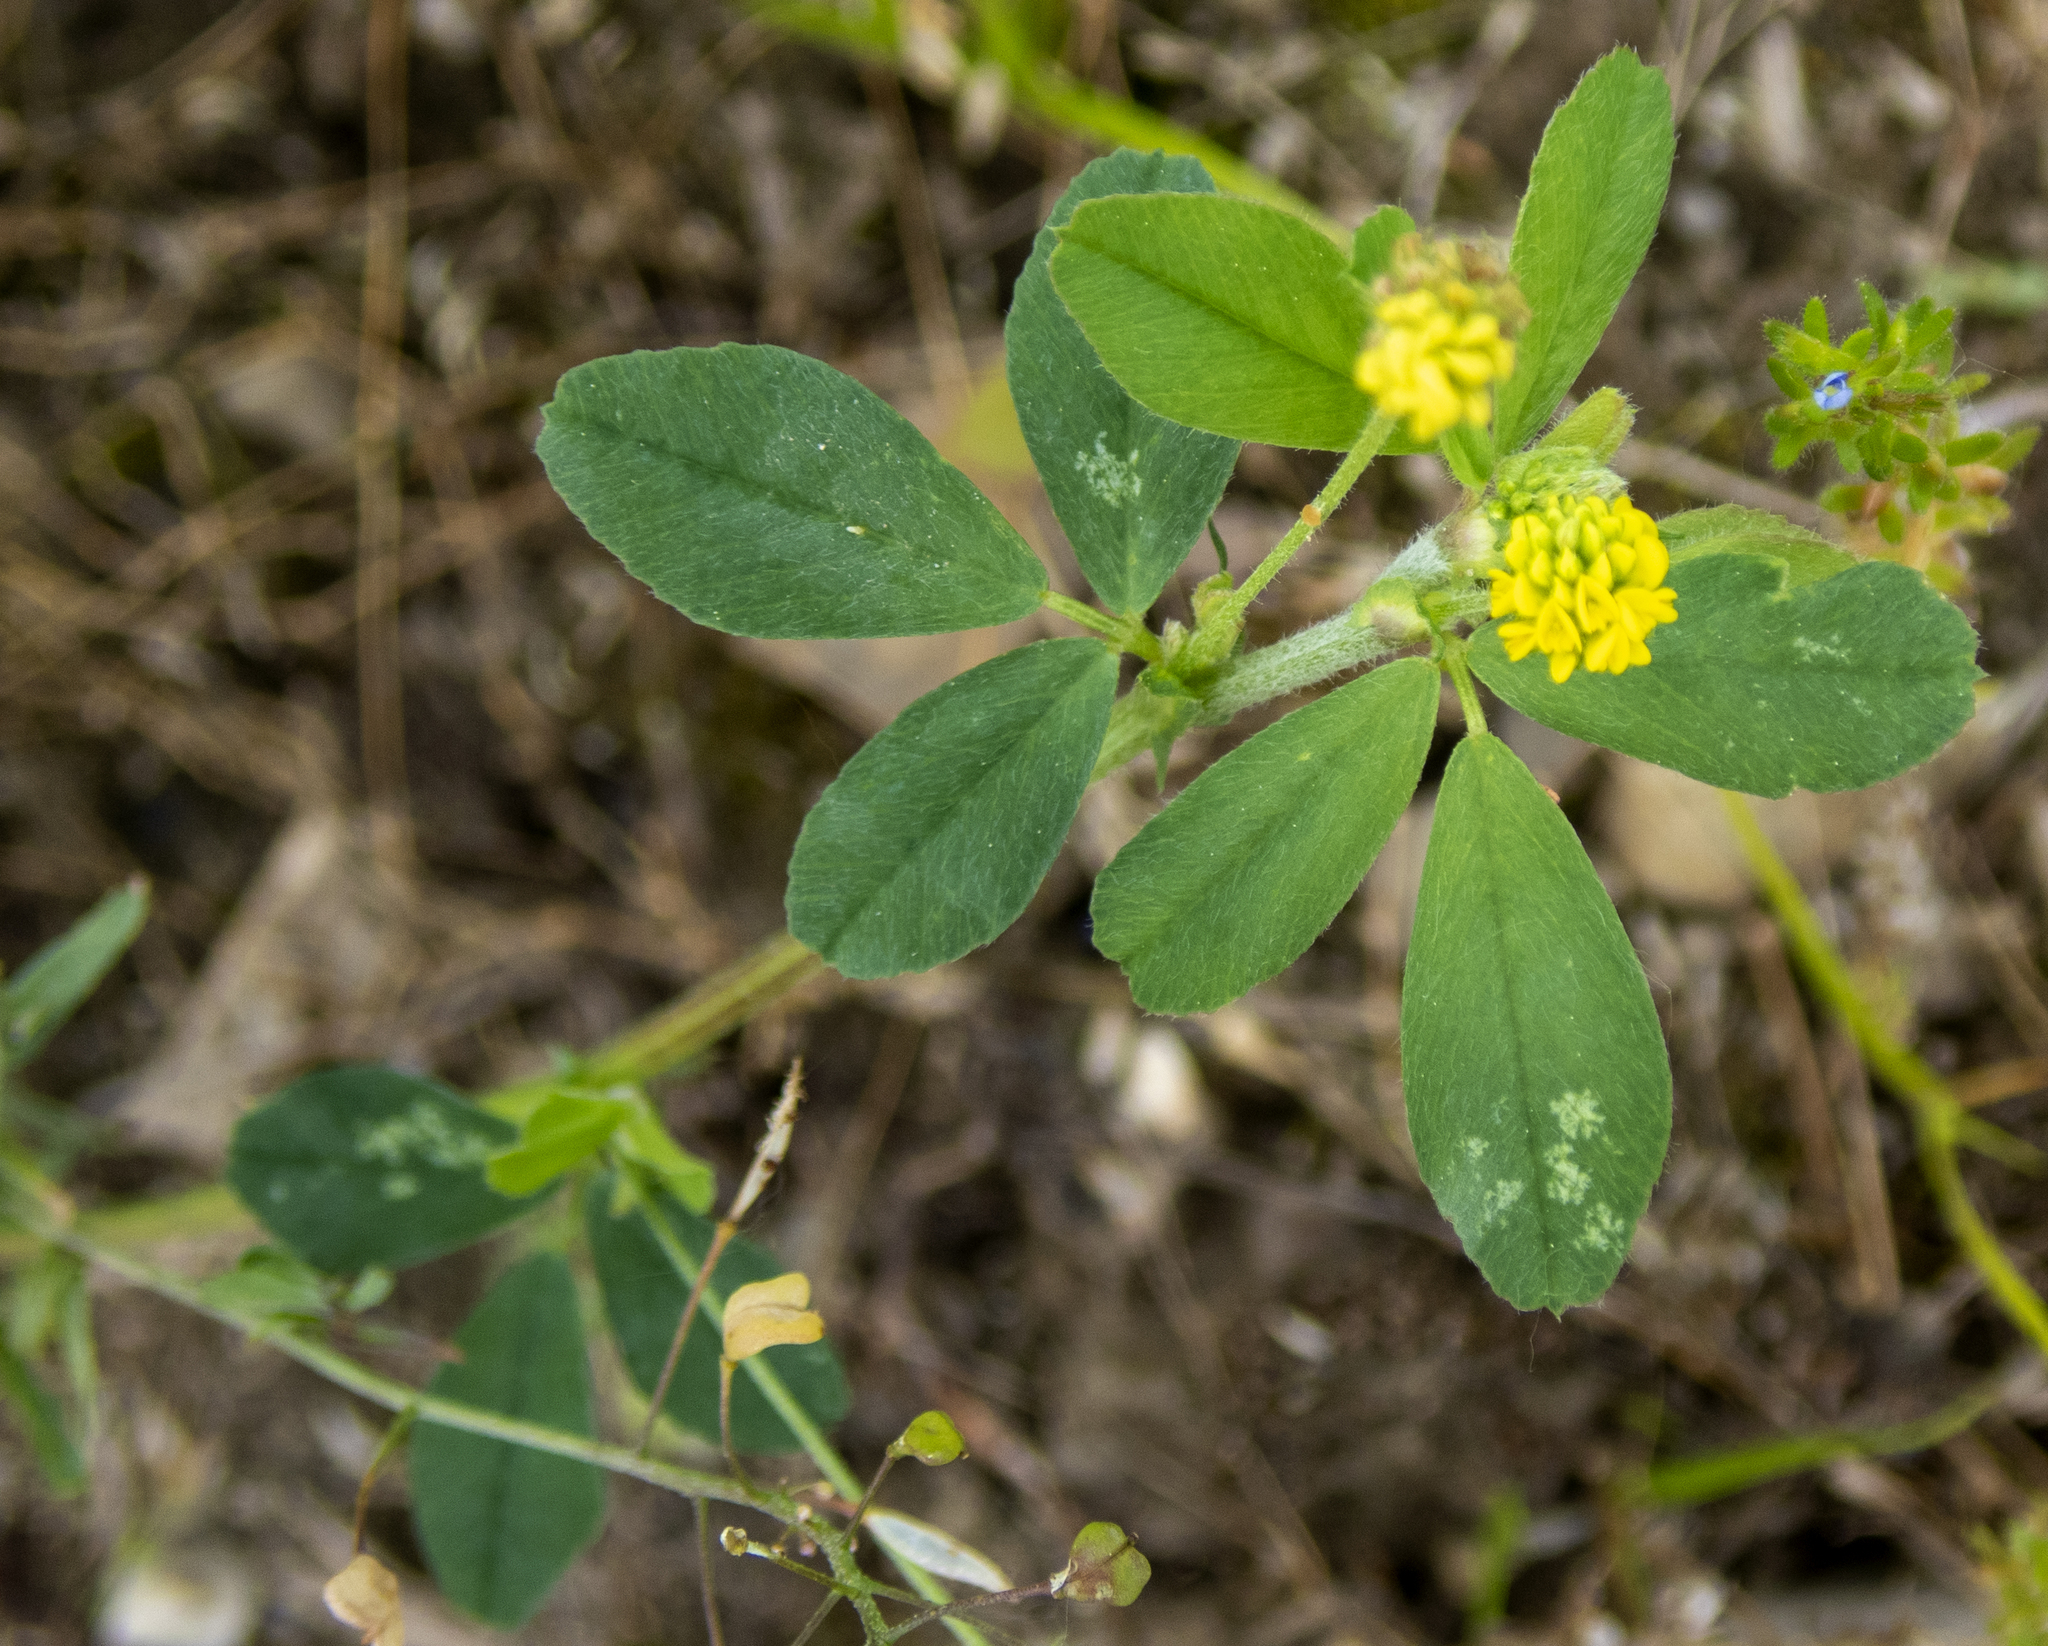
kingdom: Plantae
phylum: Tracheophyta
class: Magnoliopsida
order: Fabales
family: Fabaceae
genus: Medicago
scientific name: Medicago lupulina
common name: Black medick
